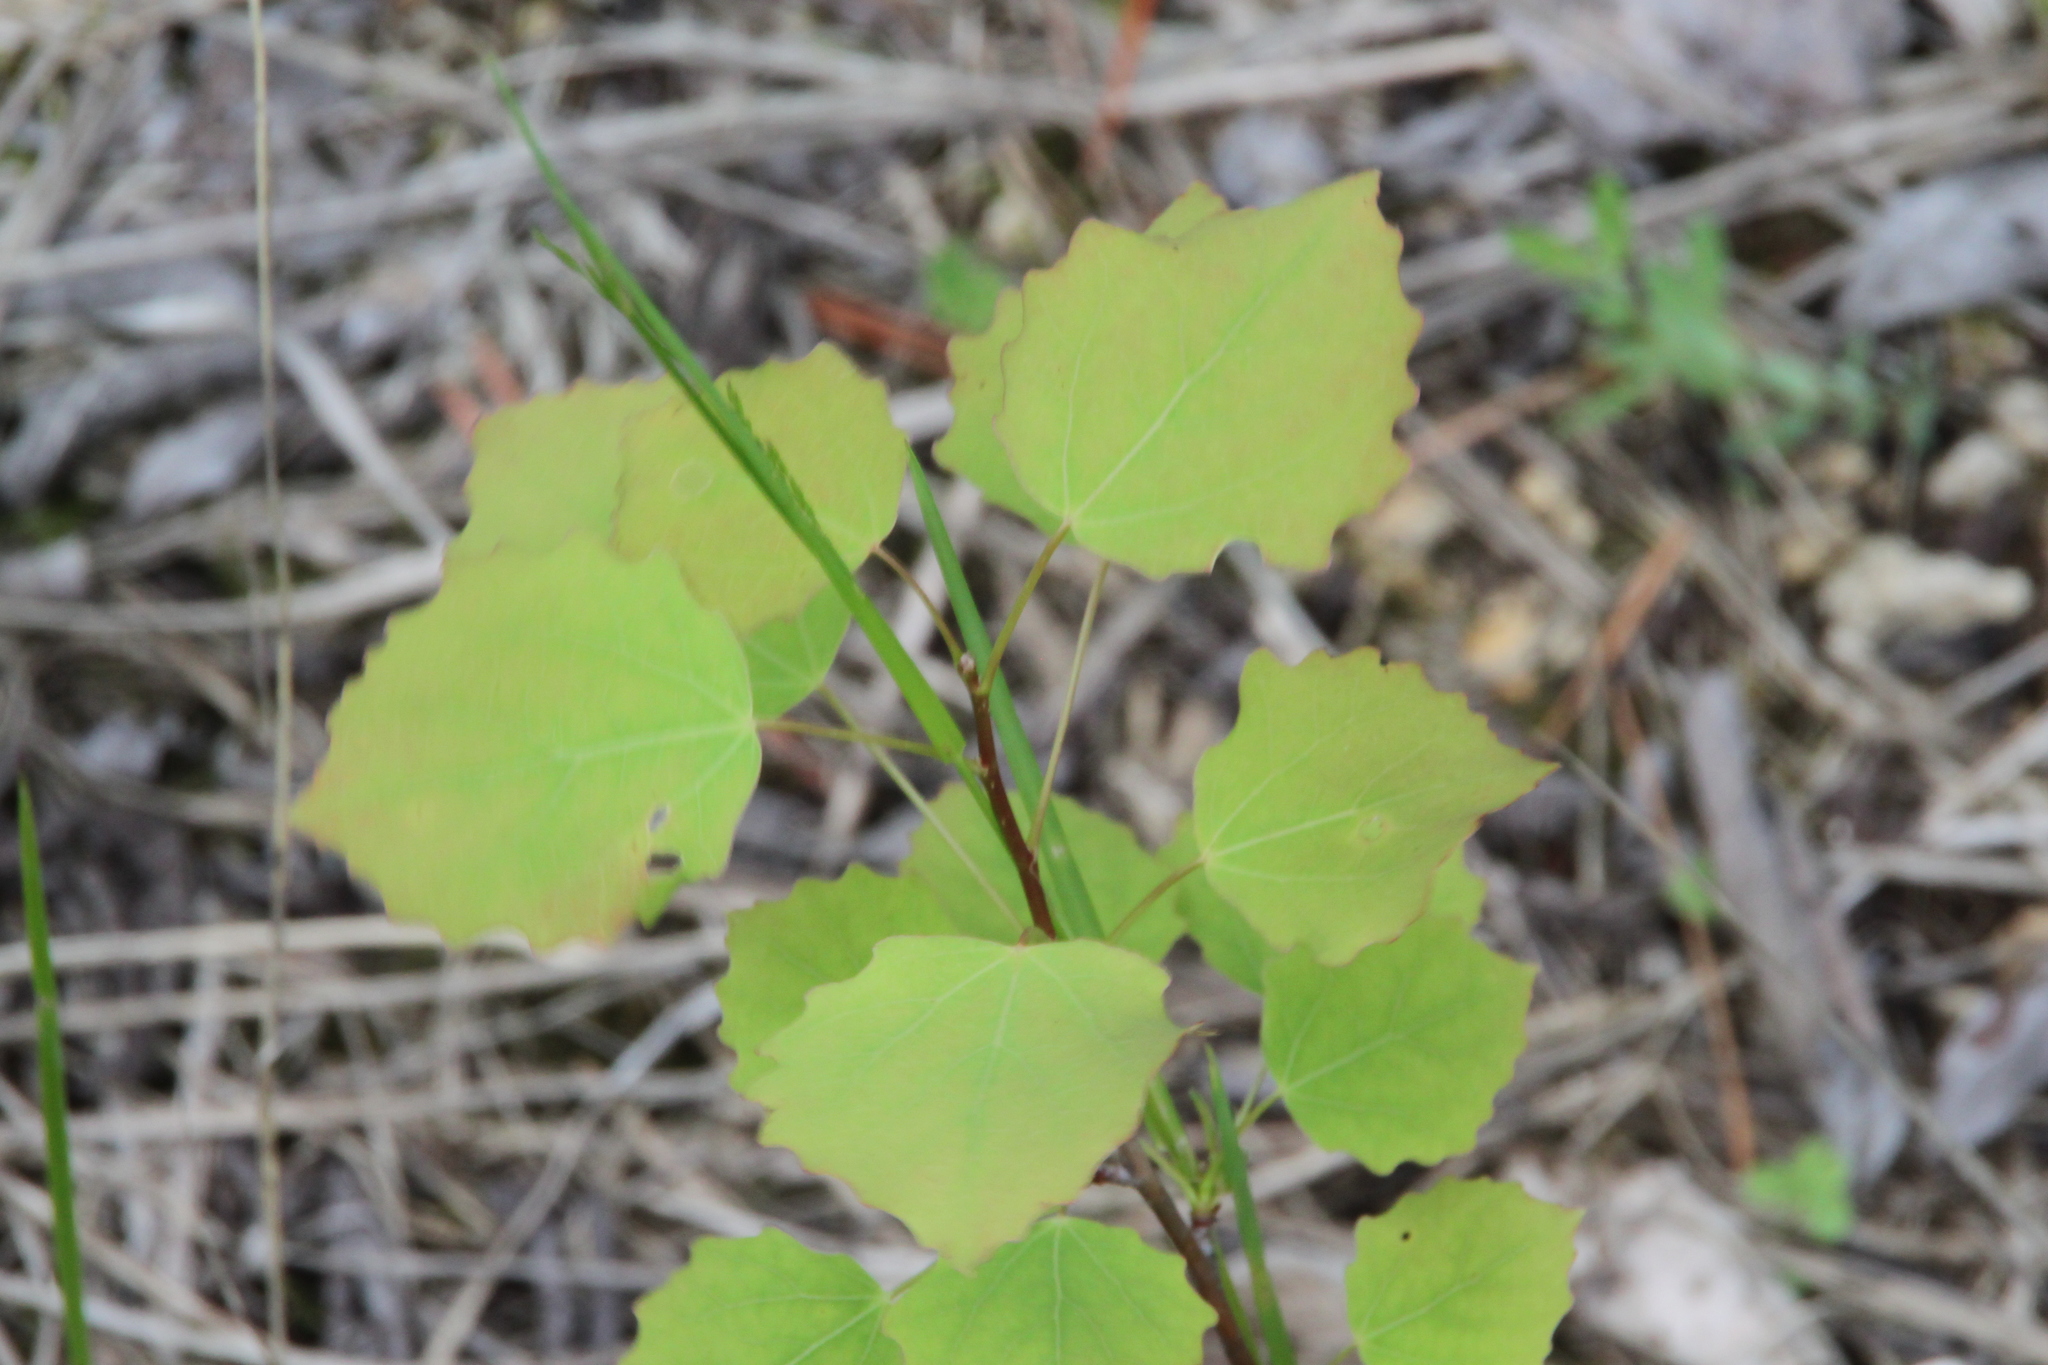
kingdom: Plantae
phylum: Tracheophyta
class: Magnoliopsida
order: Malpighiales
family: Salicaceae
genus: Populus
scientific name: Populus tremula
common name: European aspen
